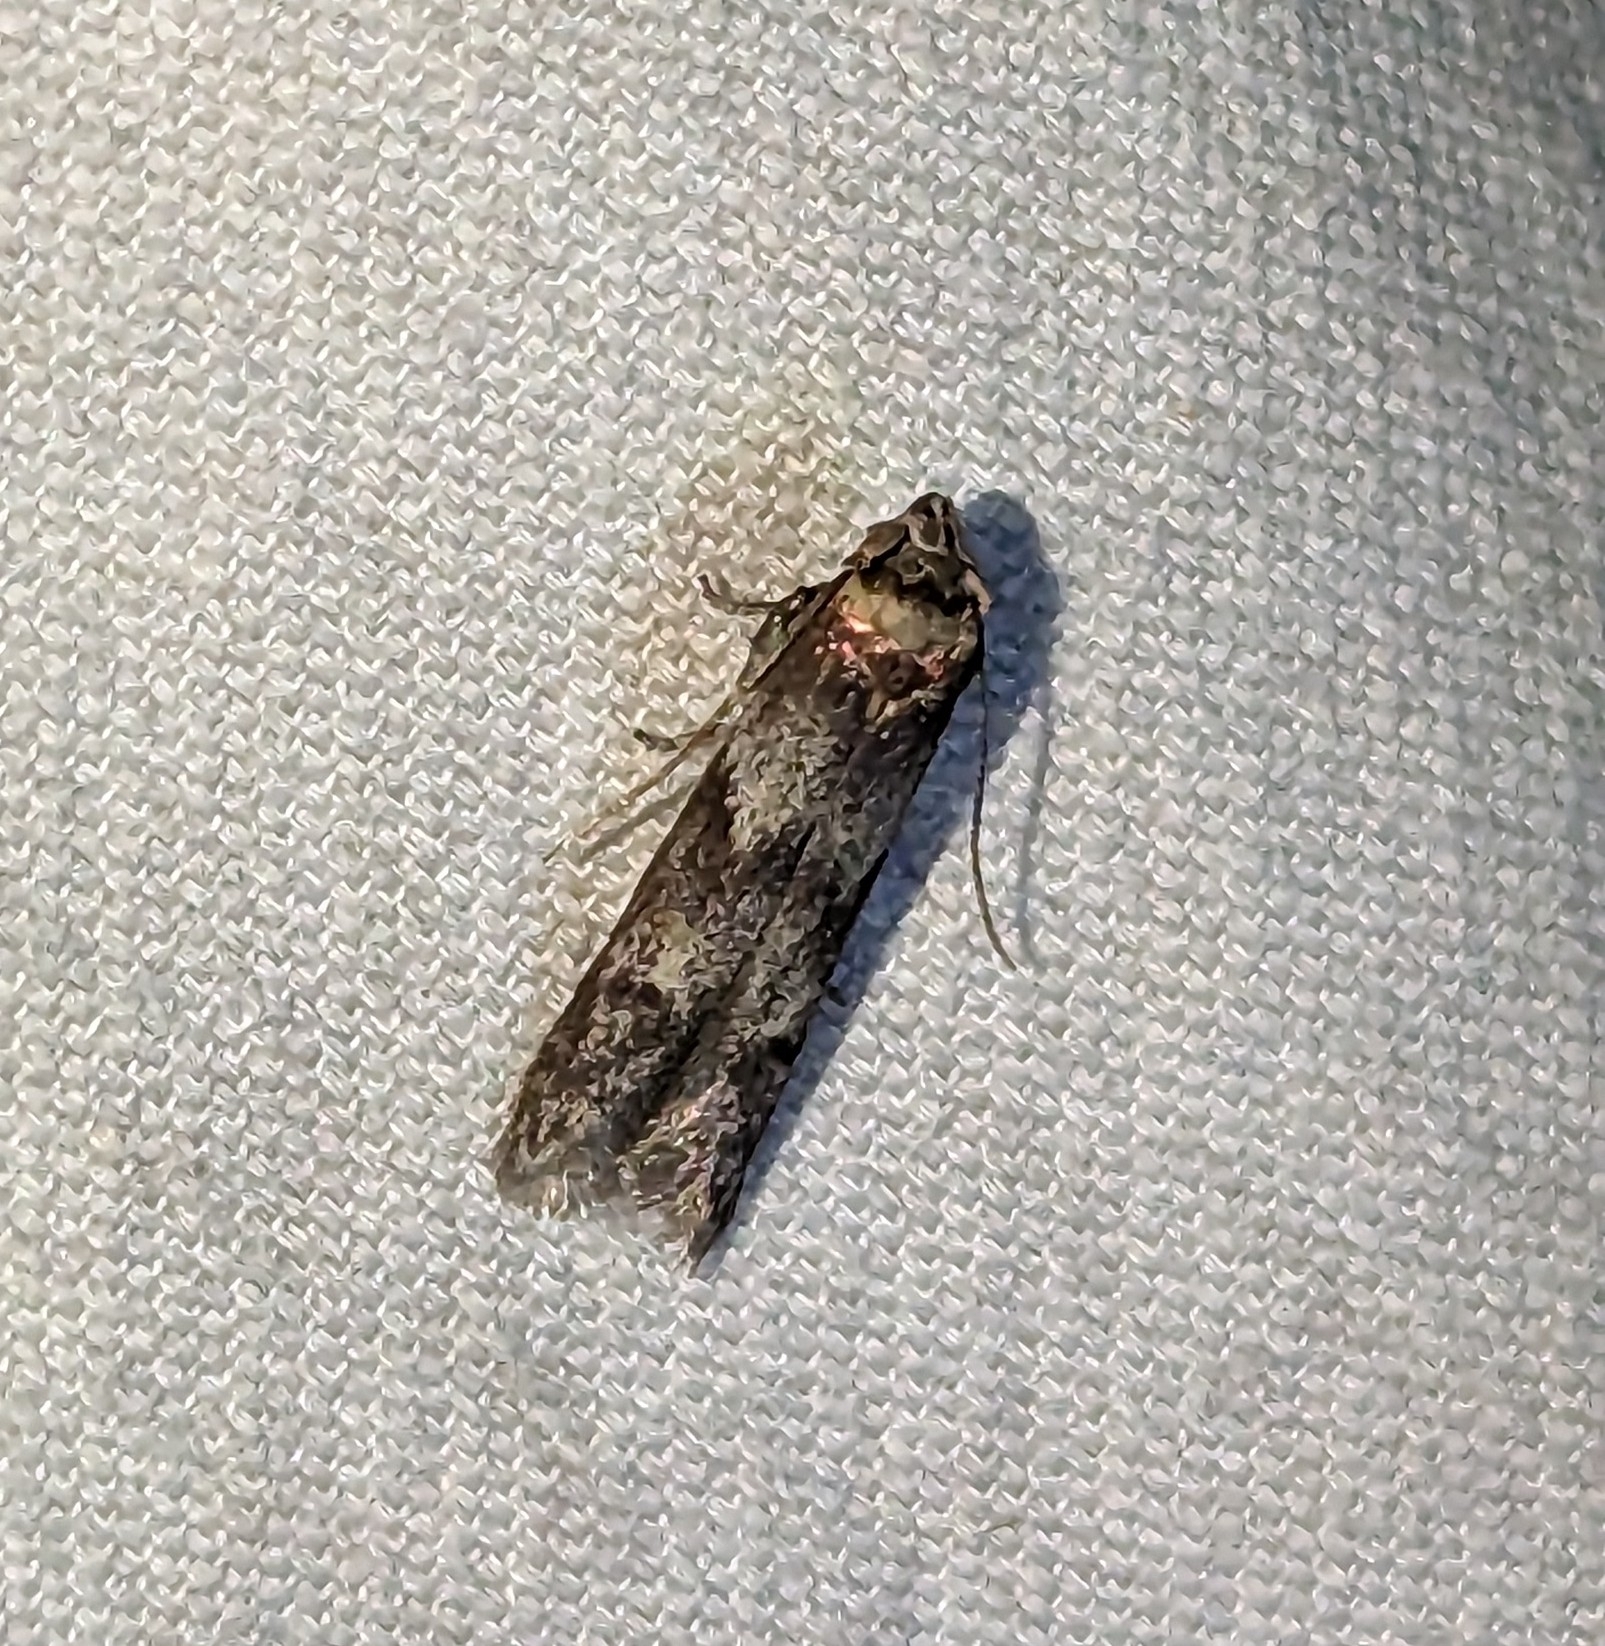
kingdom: Animalia
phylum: Arthropoda
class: Insecta
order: Lepidoptera
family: Blastobasidae
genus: Asaphocrita
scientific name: Asaphocrita aphidiella
